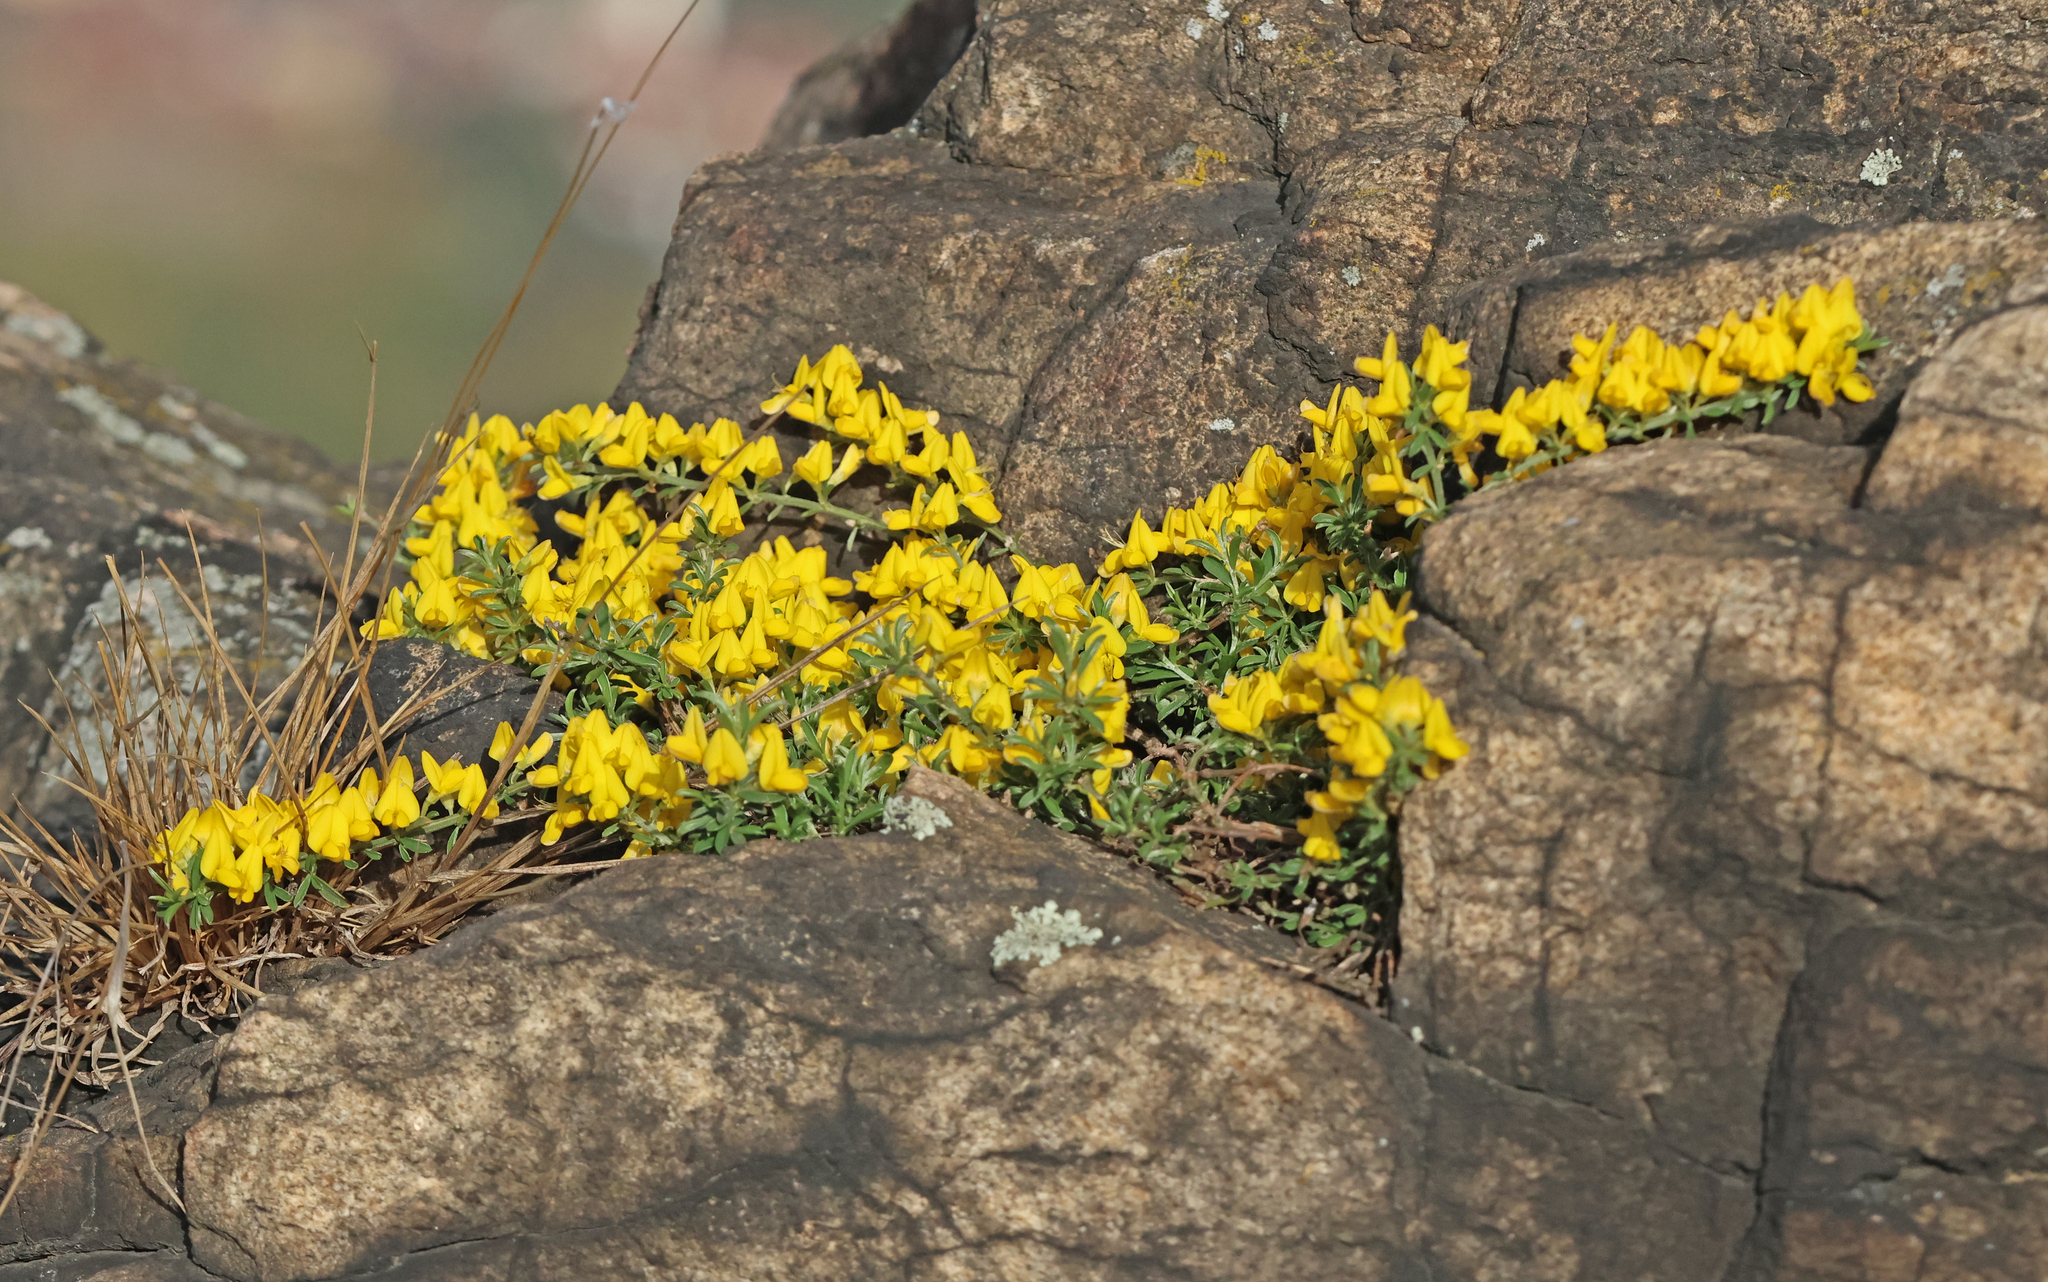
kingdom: Plantae
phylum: Tracheophyta
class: Magnoliopsida
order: Fabales
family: Fabaceae
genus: Genista
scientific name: Genista pilosa
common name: Hairy greenweed
